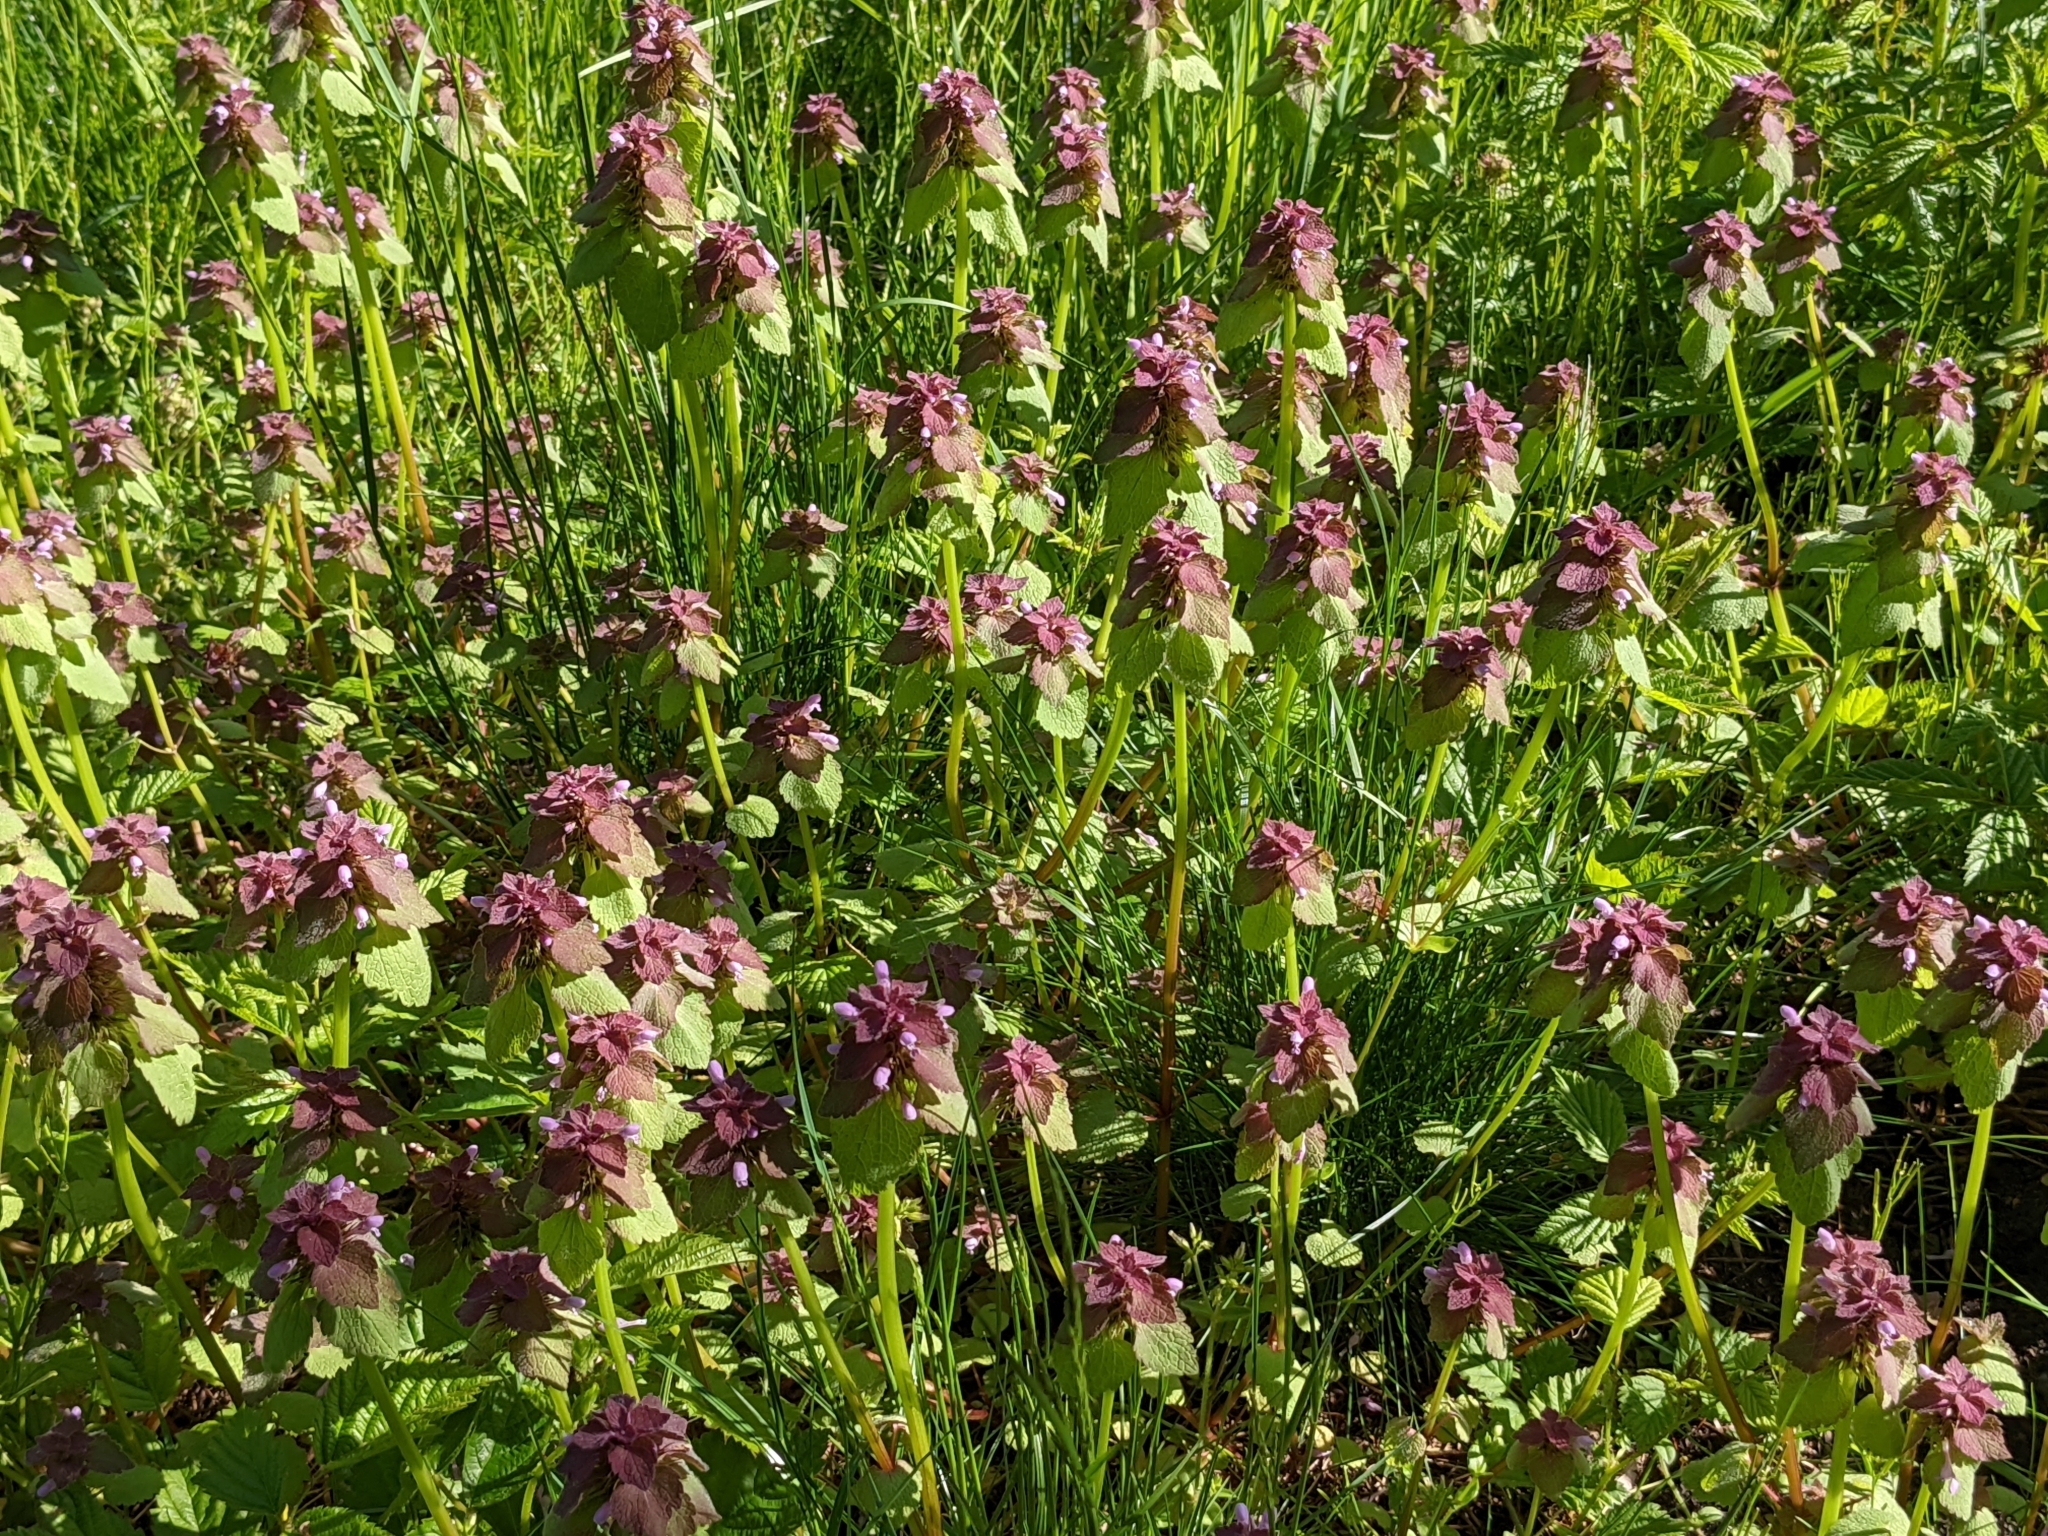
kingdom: Plantae
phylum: Tracheophyta
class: Magnoliopsida
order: Lamiales
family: Lamiaceae
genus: Lamium
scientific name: Lamium purpureum
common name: Red dead-nettle
